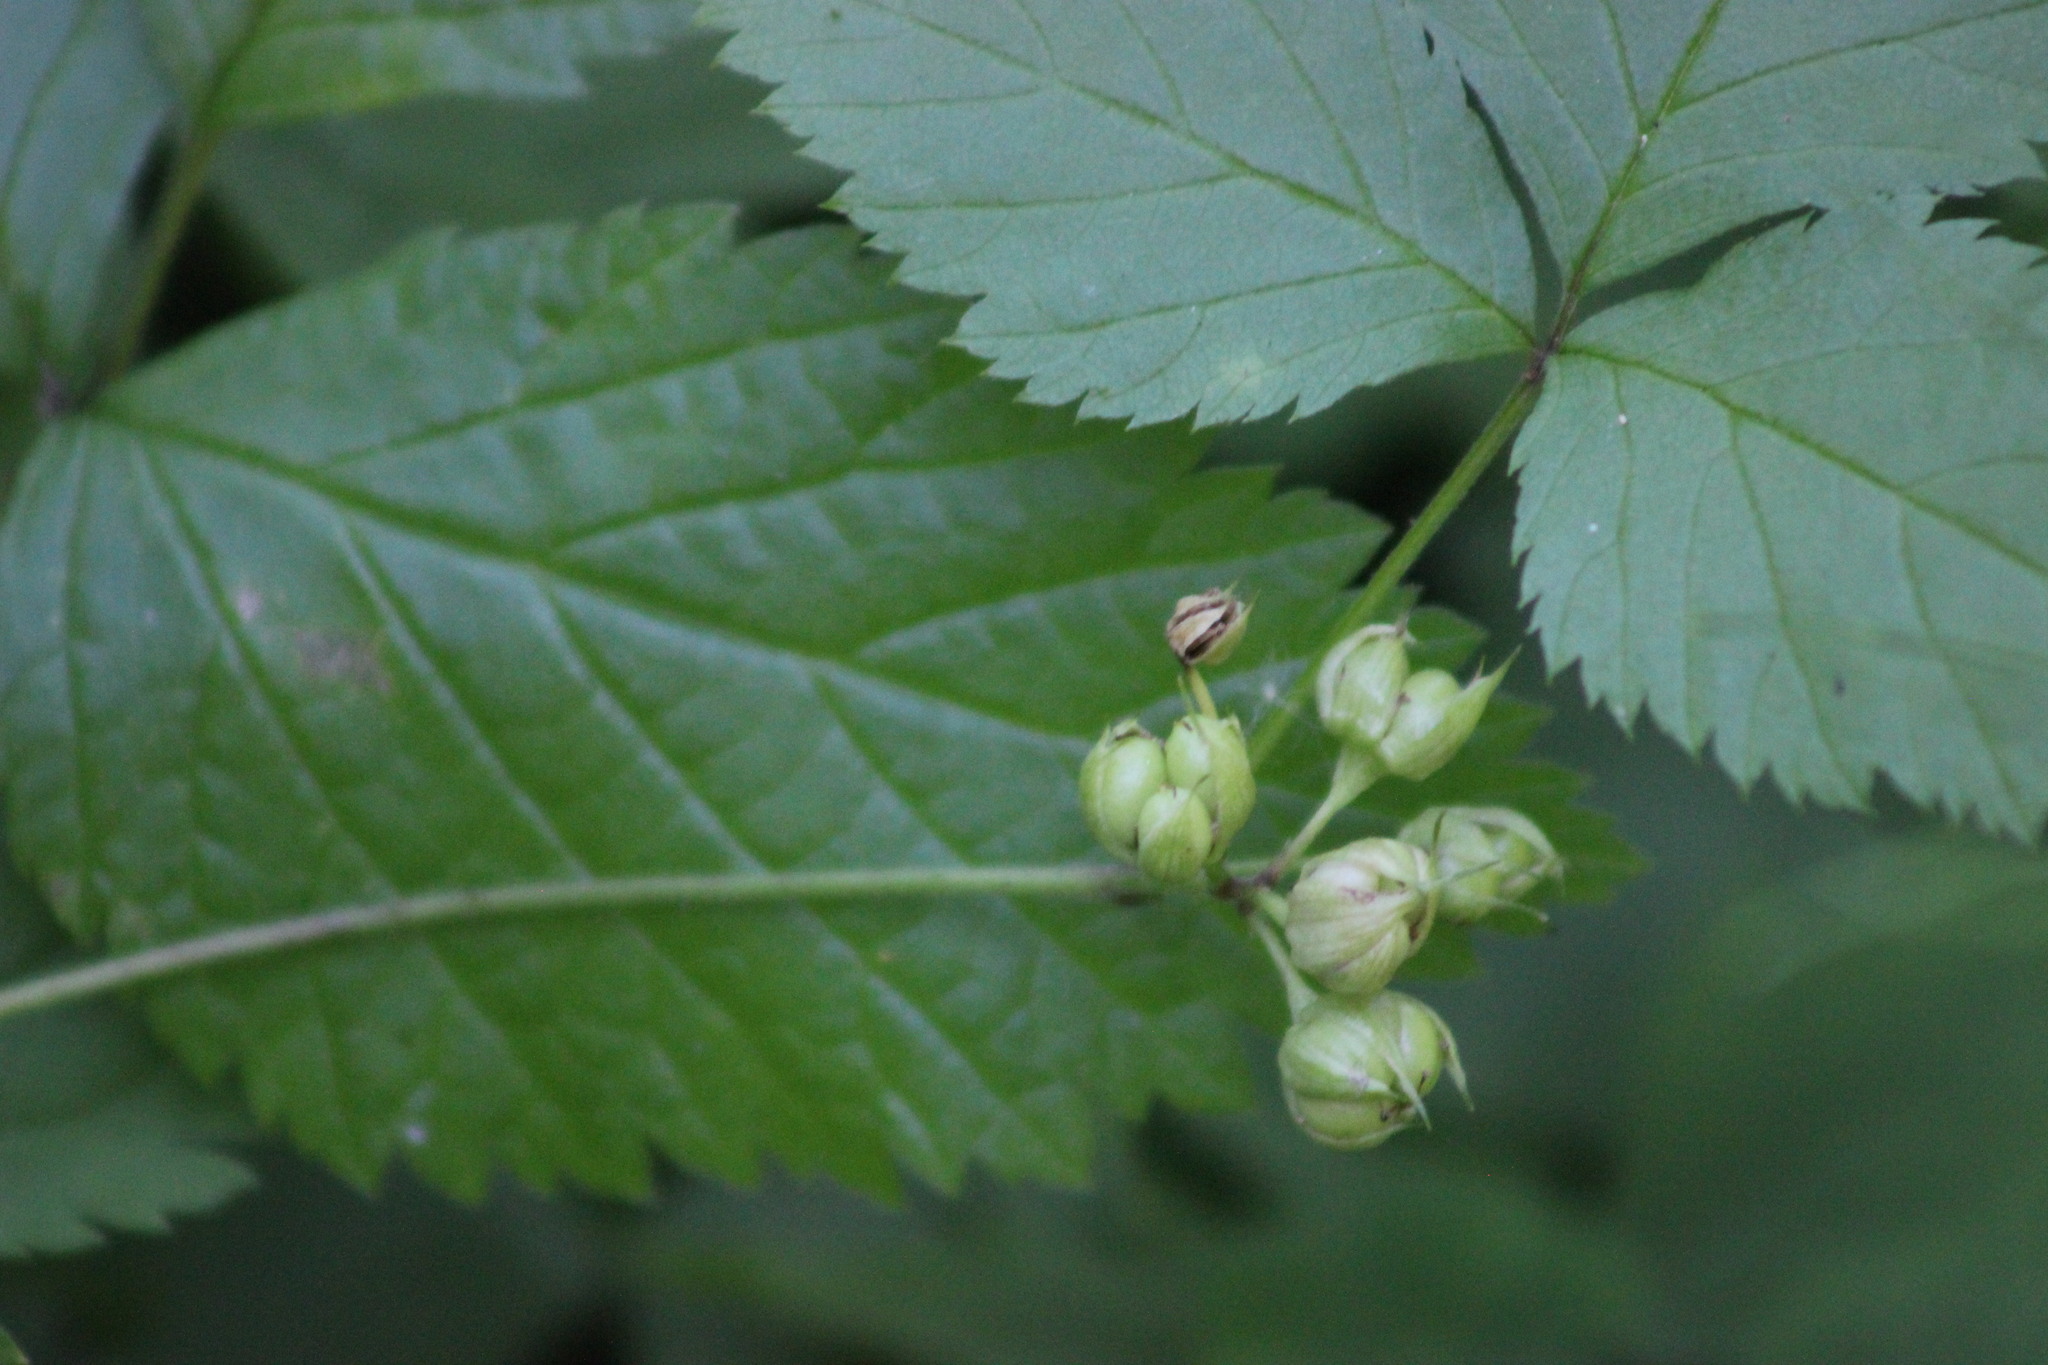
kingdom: Plantae
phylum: Tracheophyta
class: Magnoliopsida
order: Rosales
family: Rosaceae
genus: Rubus
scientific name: Rubus saxatilis
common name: Stone bramble
